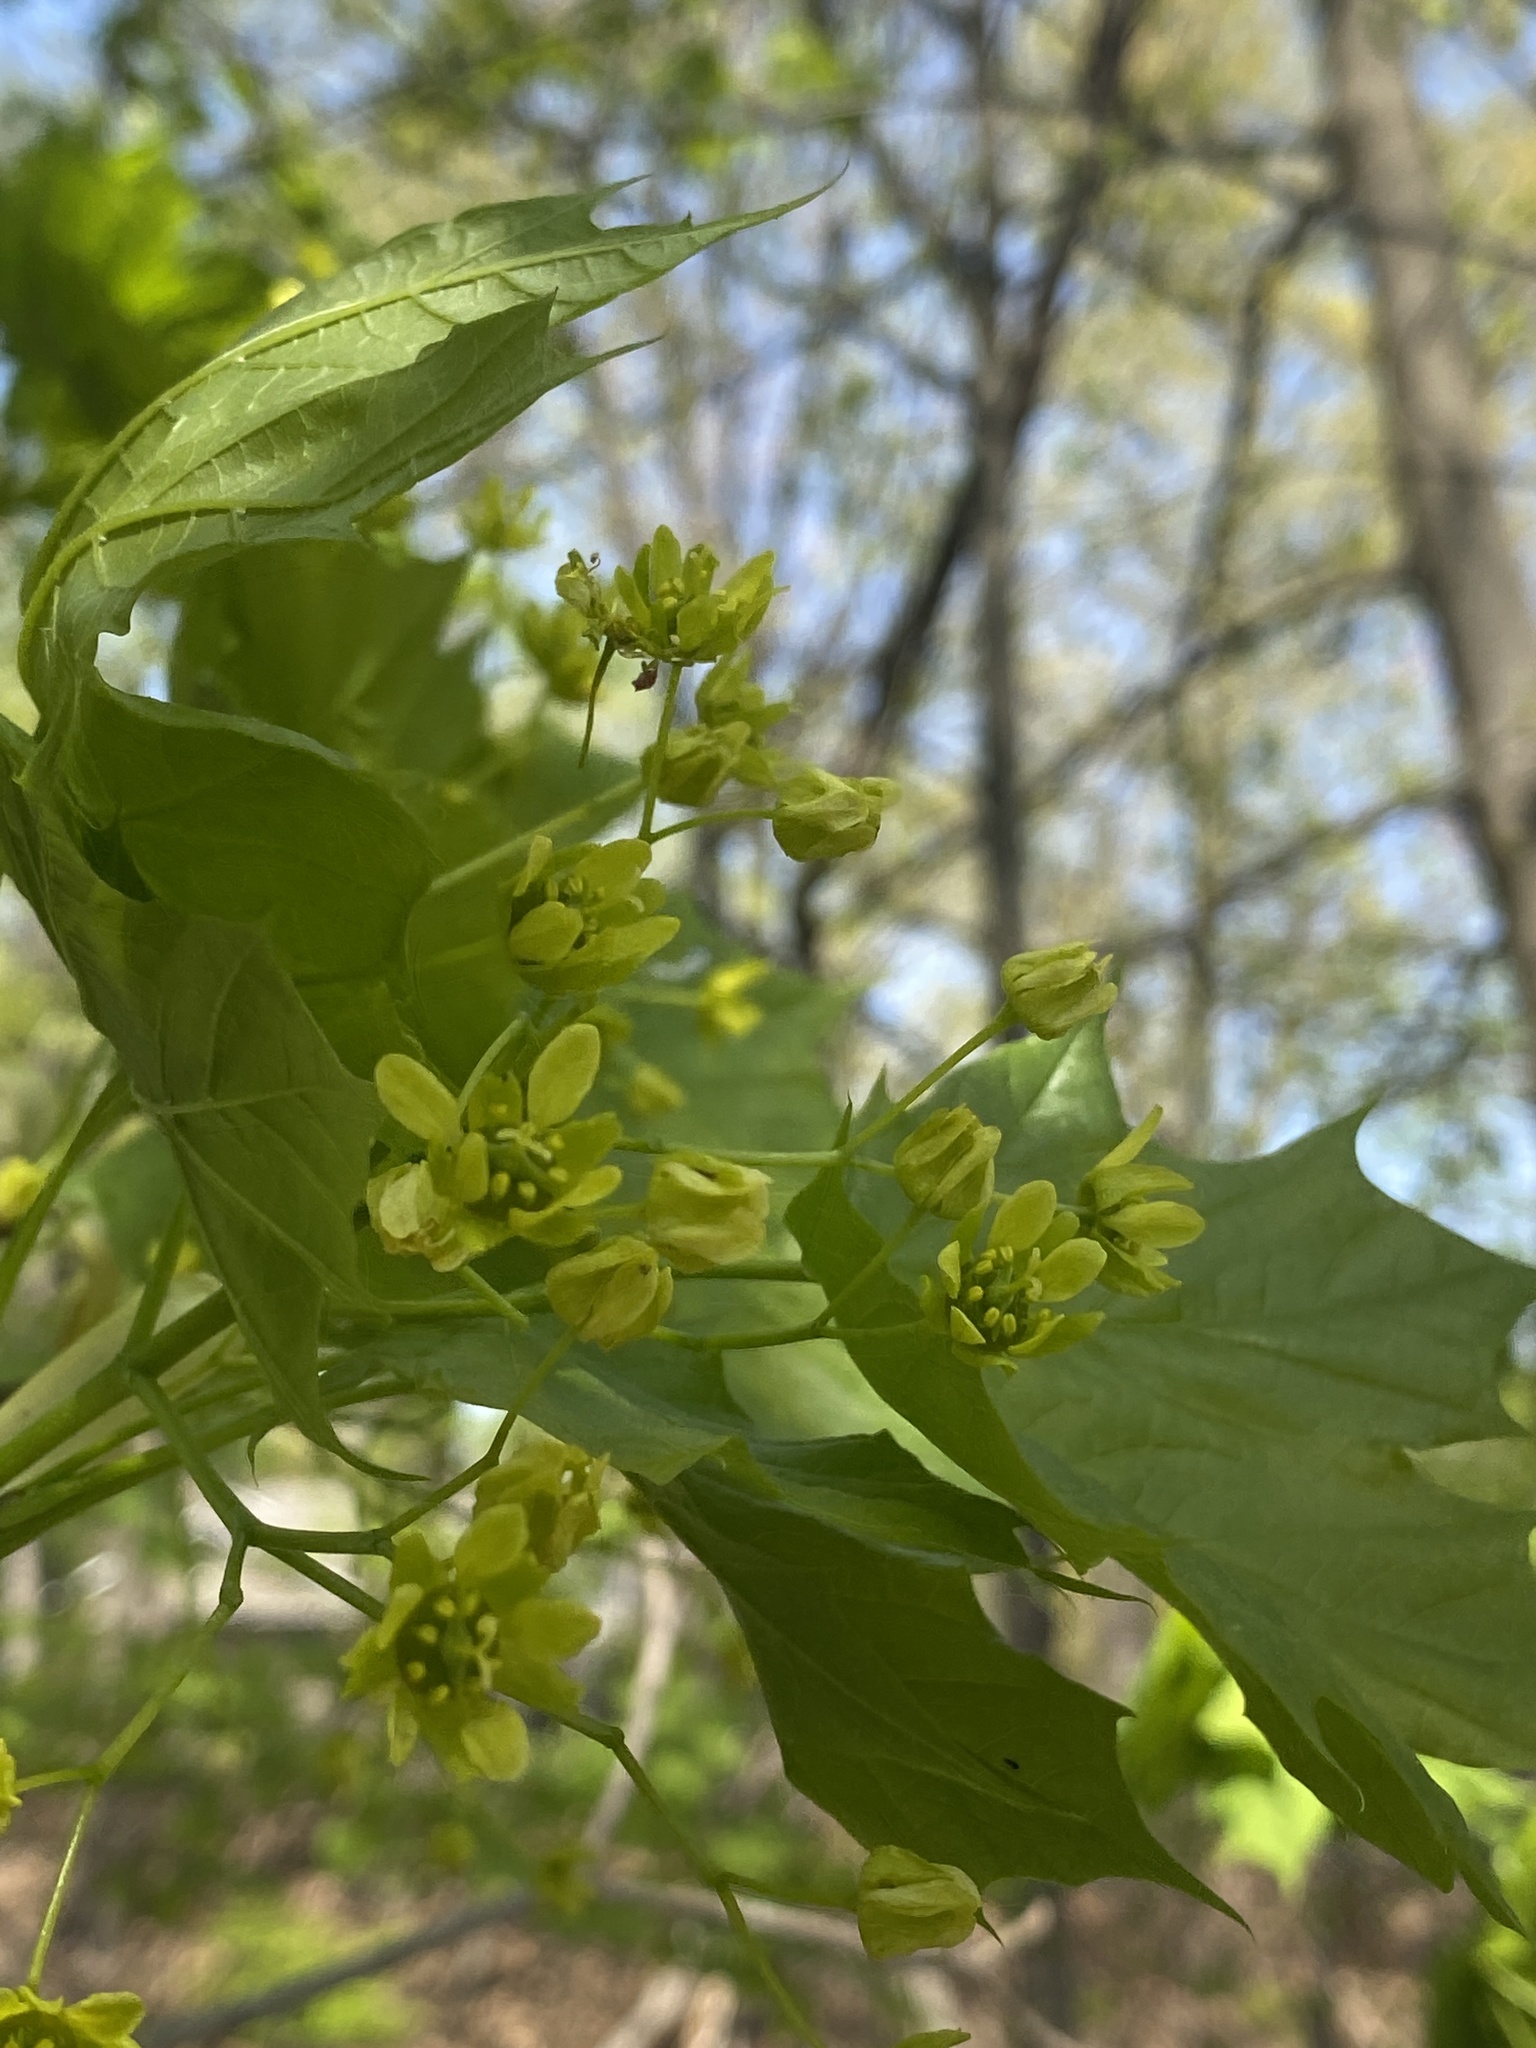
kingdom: Plantae
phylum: Tracheophyta
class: Magnoliopsida
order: Sapindales
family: Sapindaceae
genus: Acer
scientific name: Acer platanoides
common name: Norway maple
